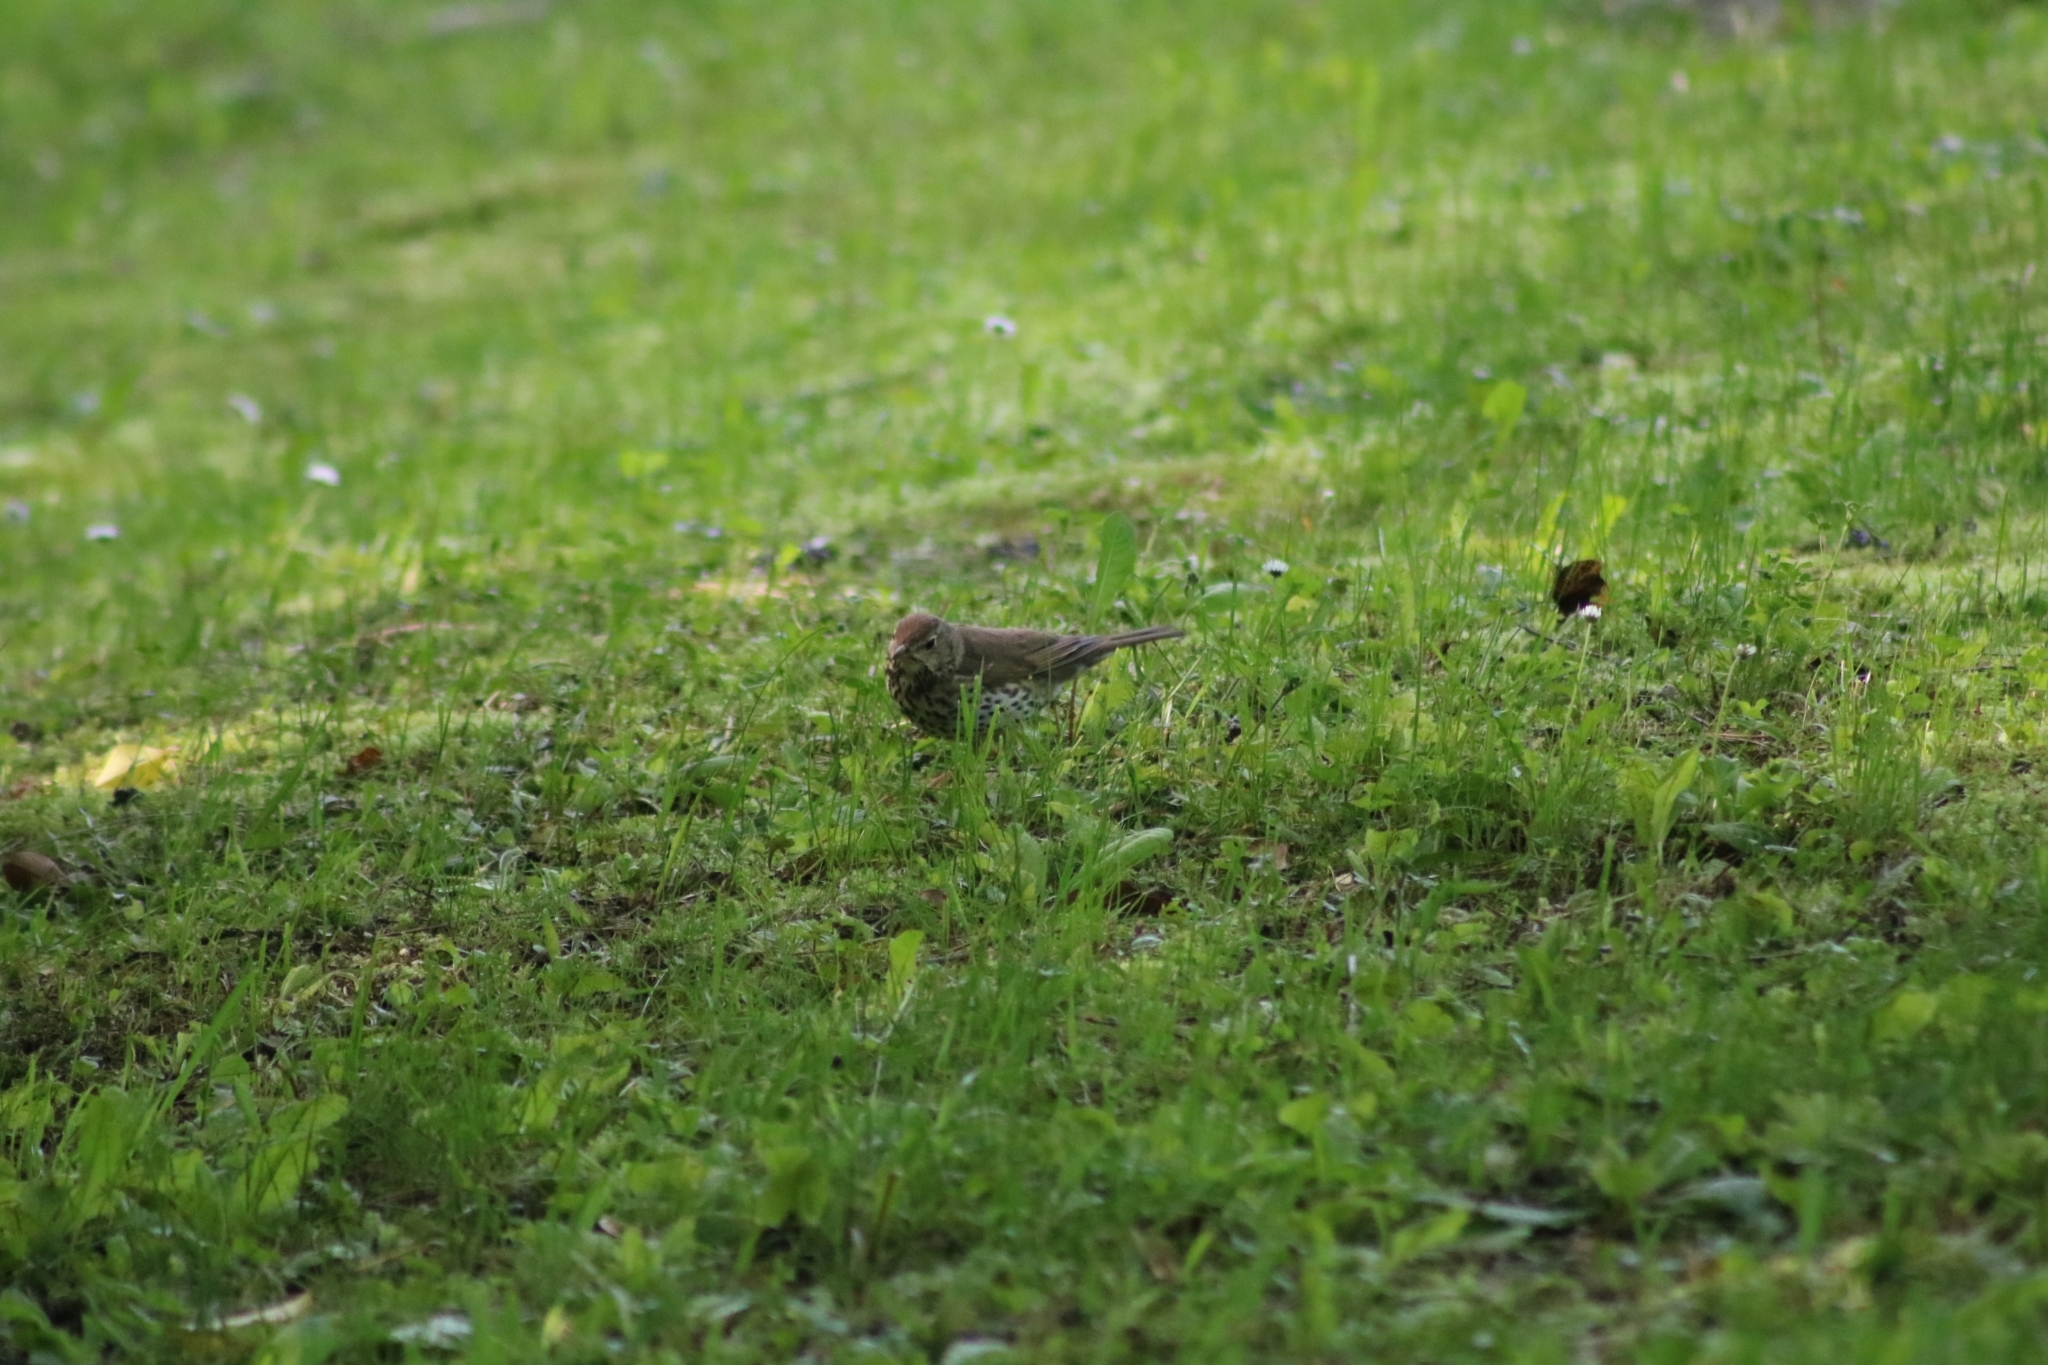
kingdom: Animalia
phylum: Chordata
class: Aves
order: Passeriformes
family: Turdidae
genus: Turdus
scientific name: Turdus philomelos
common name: Song thrush
